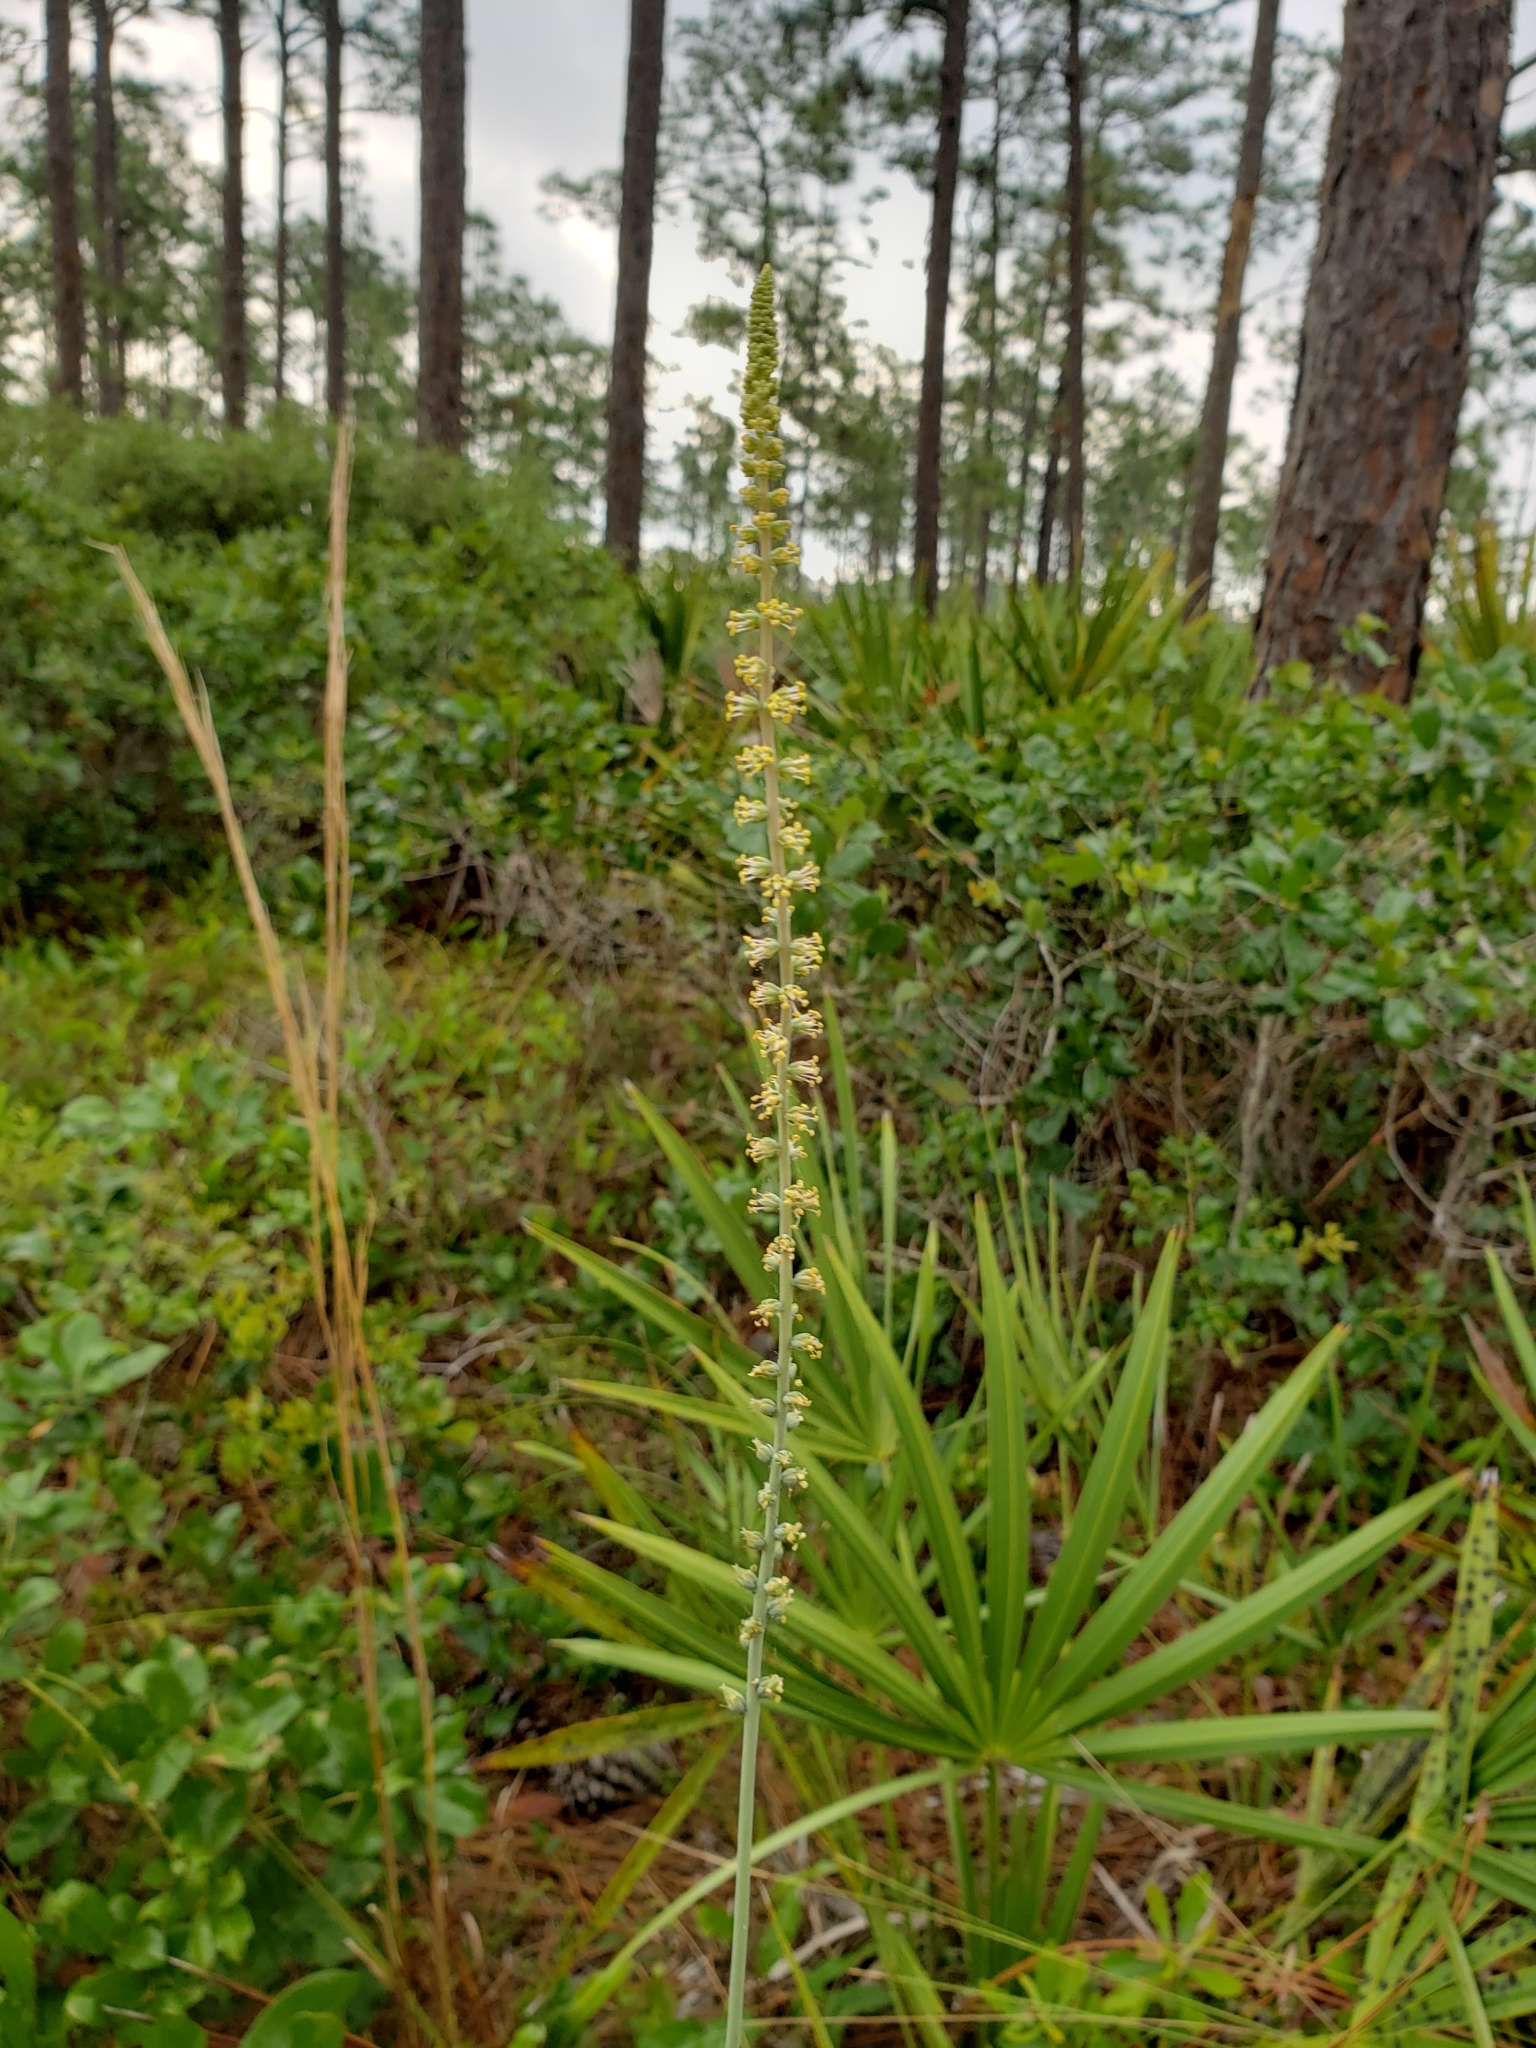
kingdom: Plantae
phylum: Tracheophyta
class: Liliopsida
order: Liliales
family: Melanthiaceae
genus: Schoenocaulon
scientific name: Schoenocaulon dubium
